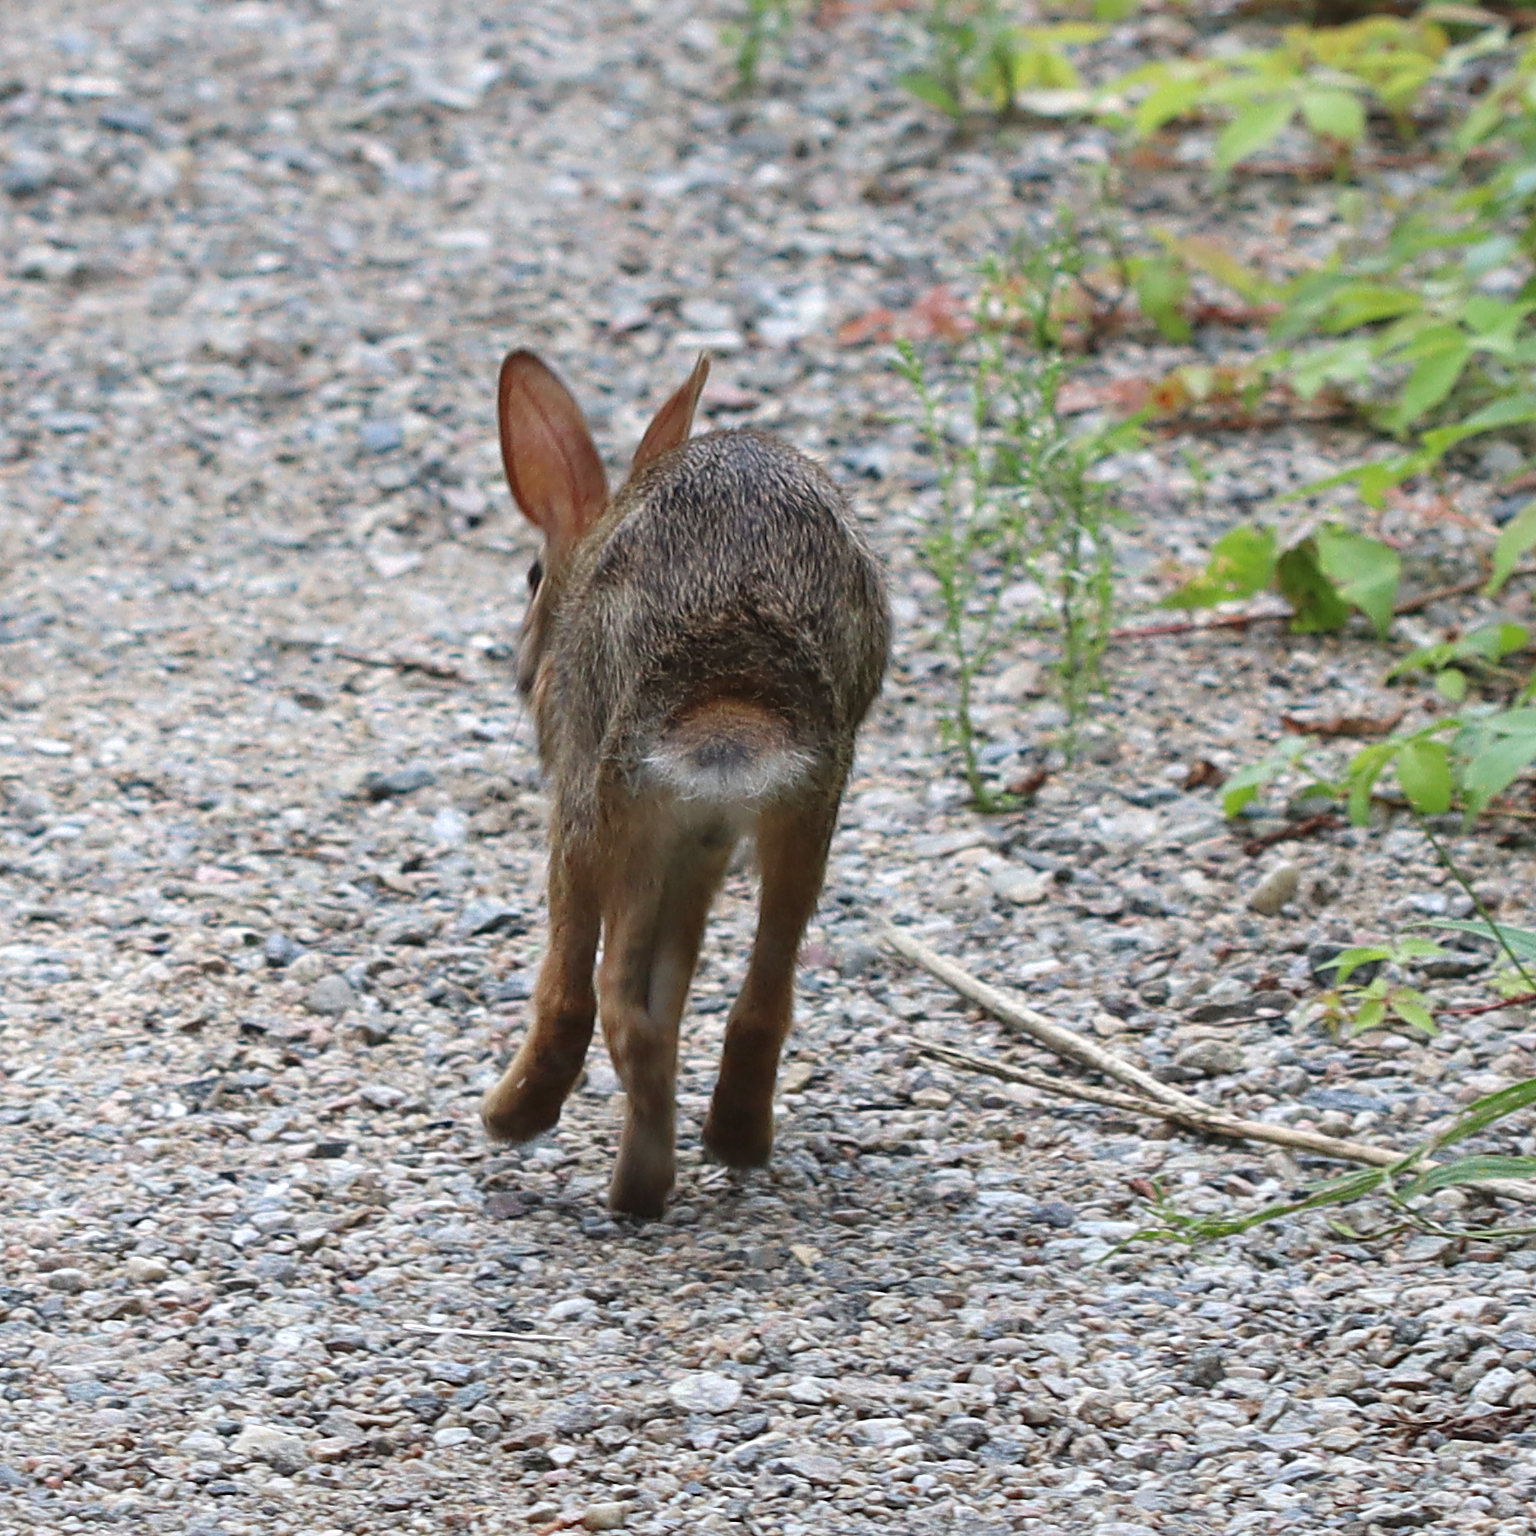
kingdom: Animalia
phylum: Chordata
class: Mammalia
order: Lagomorpha
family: Leporidae
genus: Sylvilagus
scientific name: Sylvilagus floridanus
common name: Eastern cottontail
